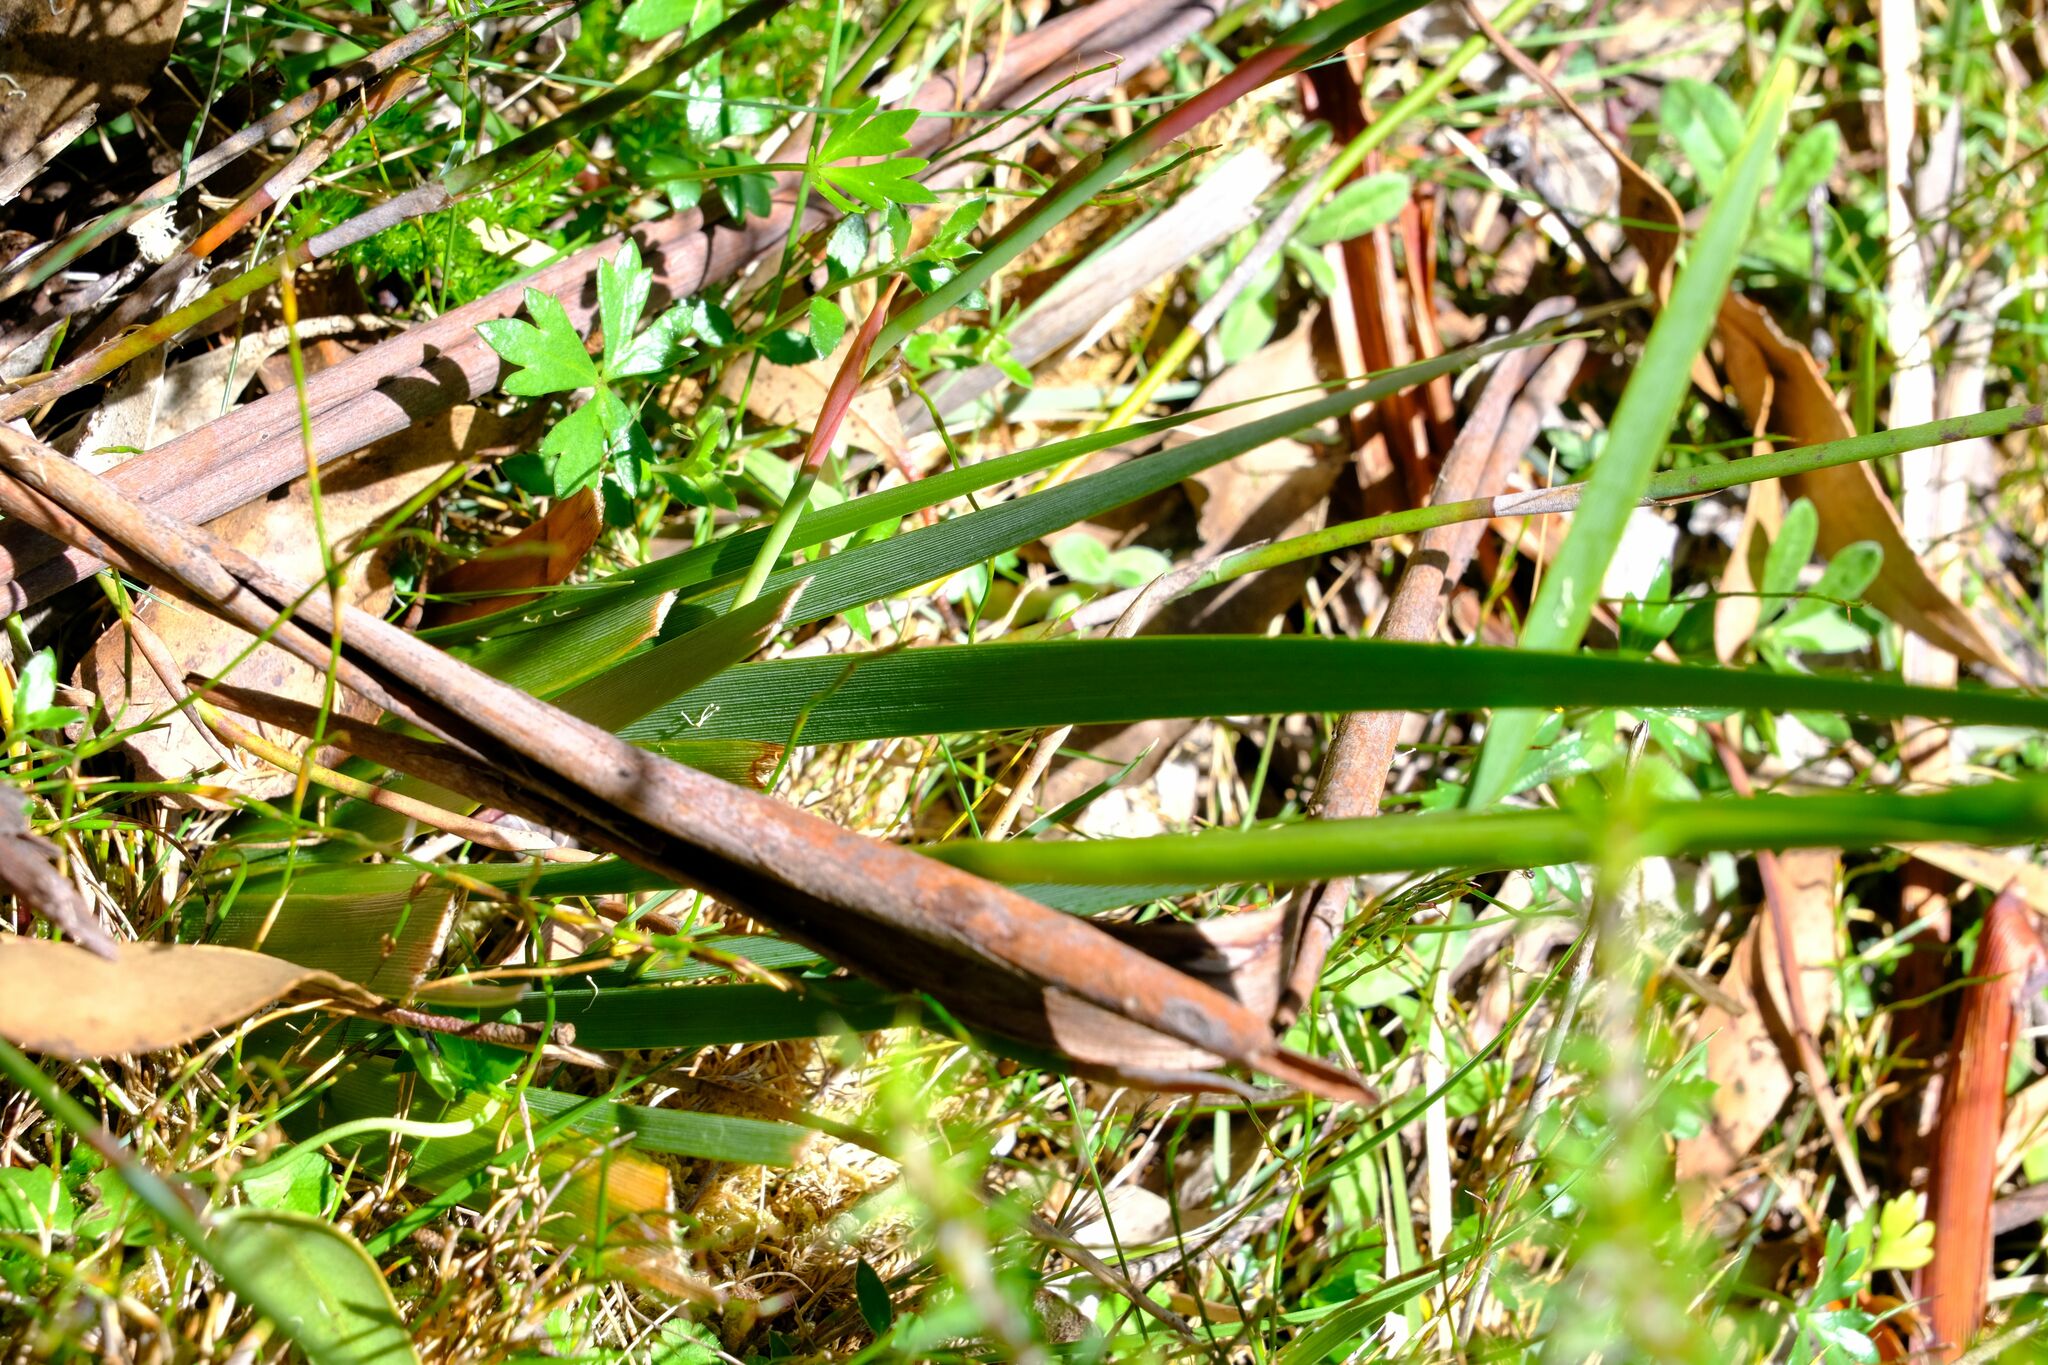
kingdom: Plantae
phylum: Tracheophyta
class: Liliopsida
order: Asparagales
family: Iridaceae
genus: Diplarrena
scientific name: Diplarrena latifolia
